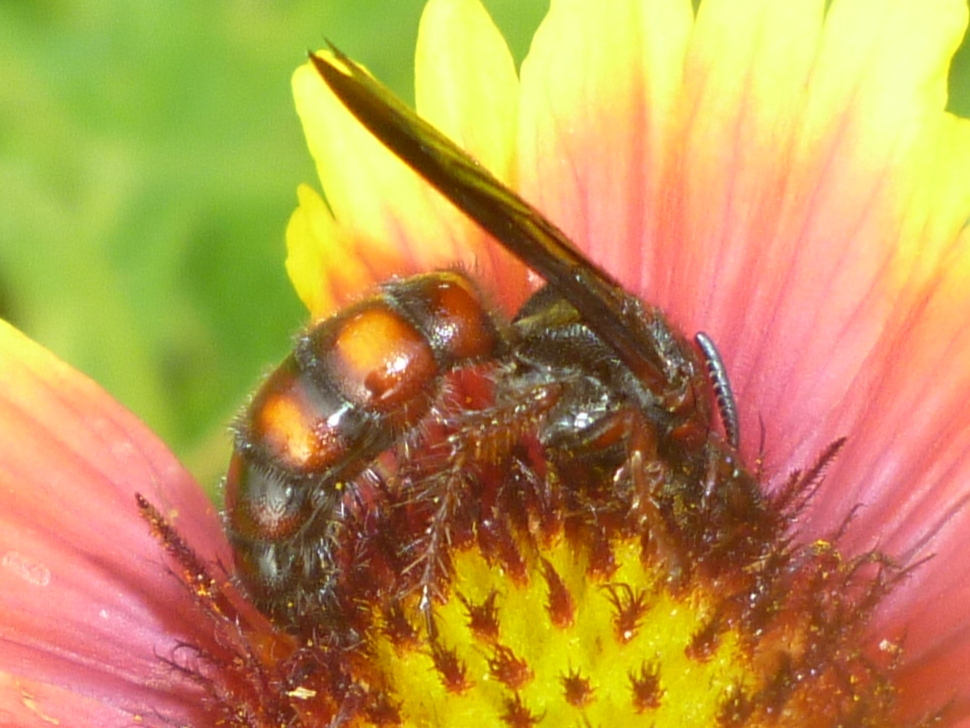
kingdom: Animalia
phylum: Arthropoda
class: Insecta
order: Hymenoptera
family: Scoliidae
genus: Scolia
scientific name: Scolia nobilitata
